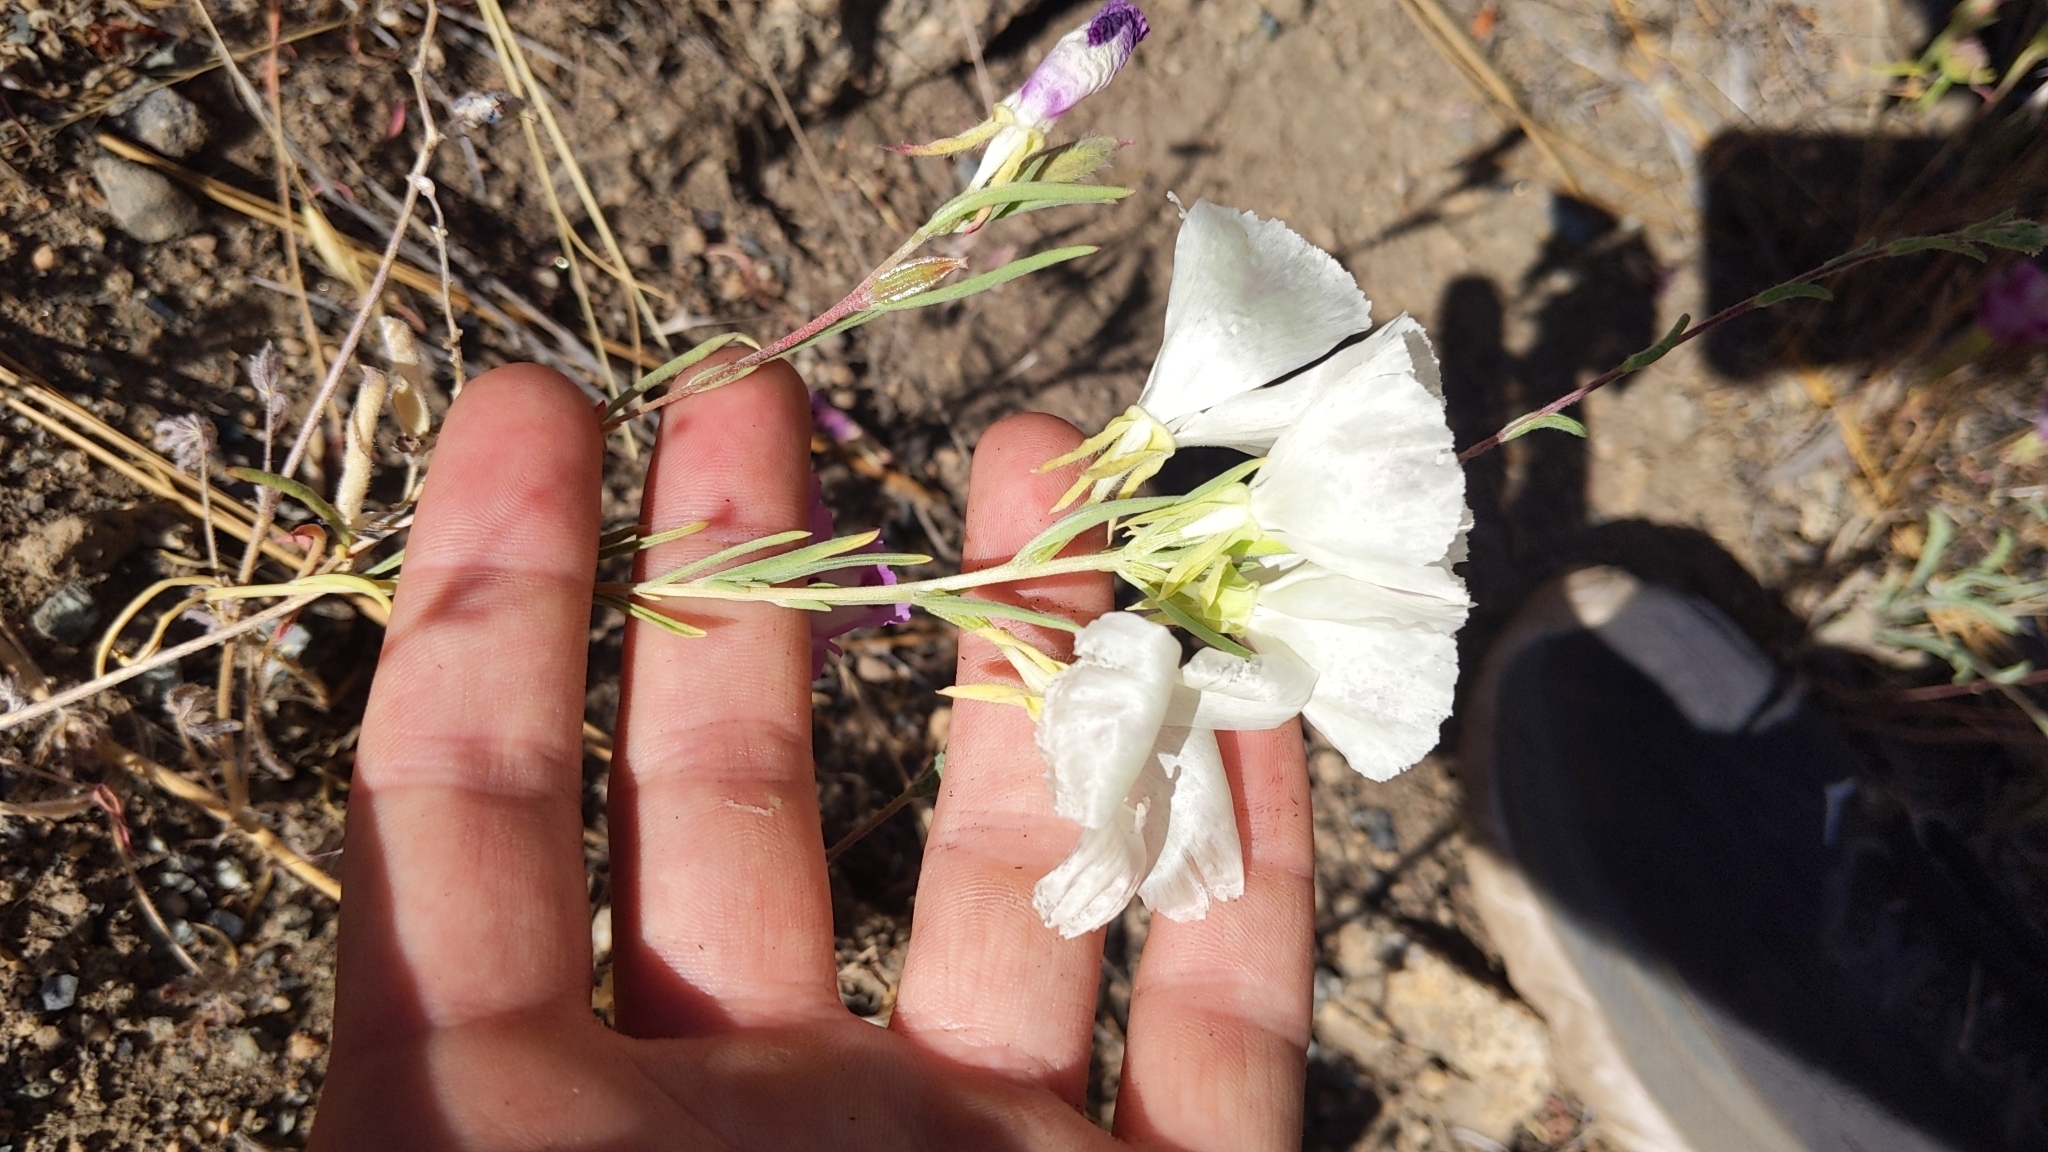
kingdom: Plantae
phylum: Tracheophyta
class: Magnoliopsida
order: Myrtales
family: Onagraceae
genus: Clarkia
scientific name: Clarkia williamsonii
